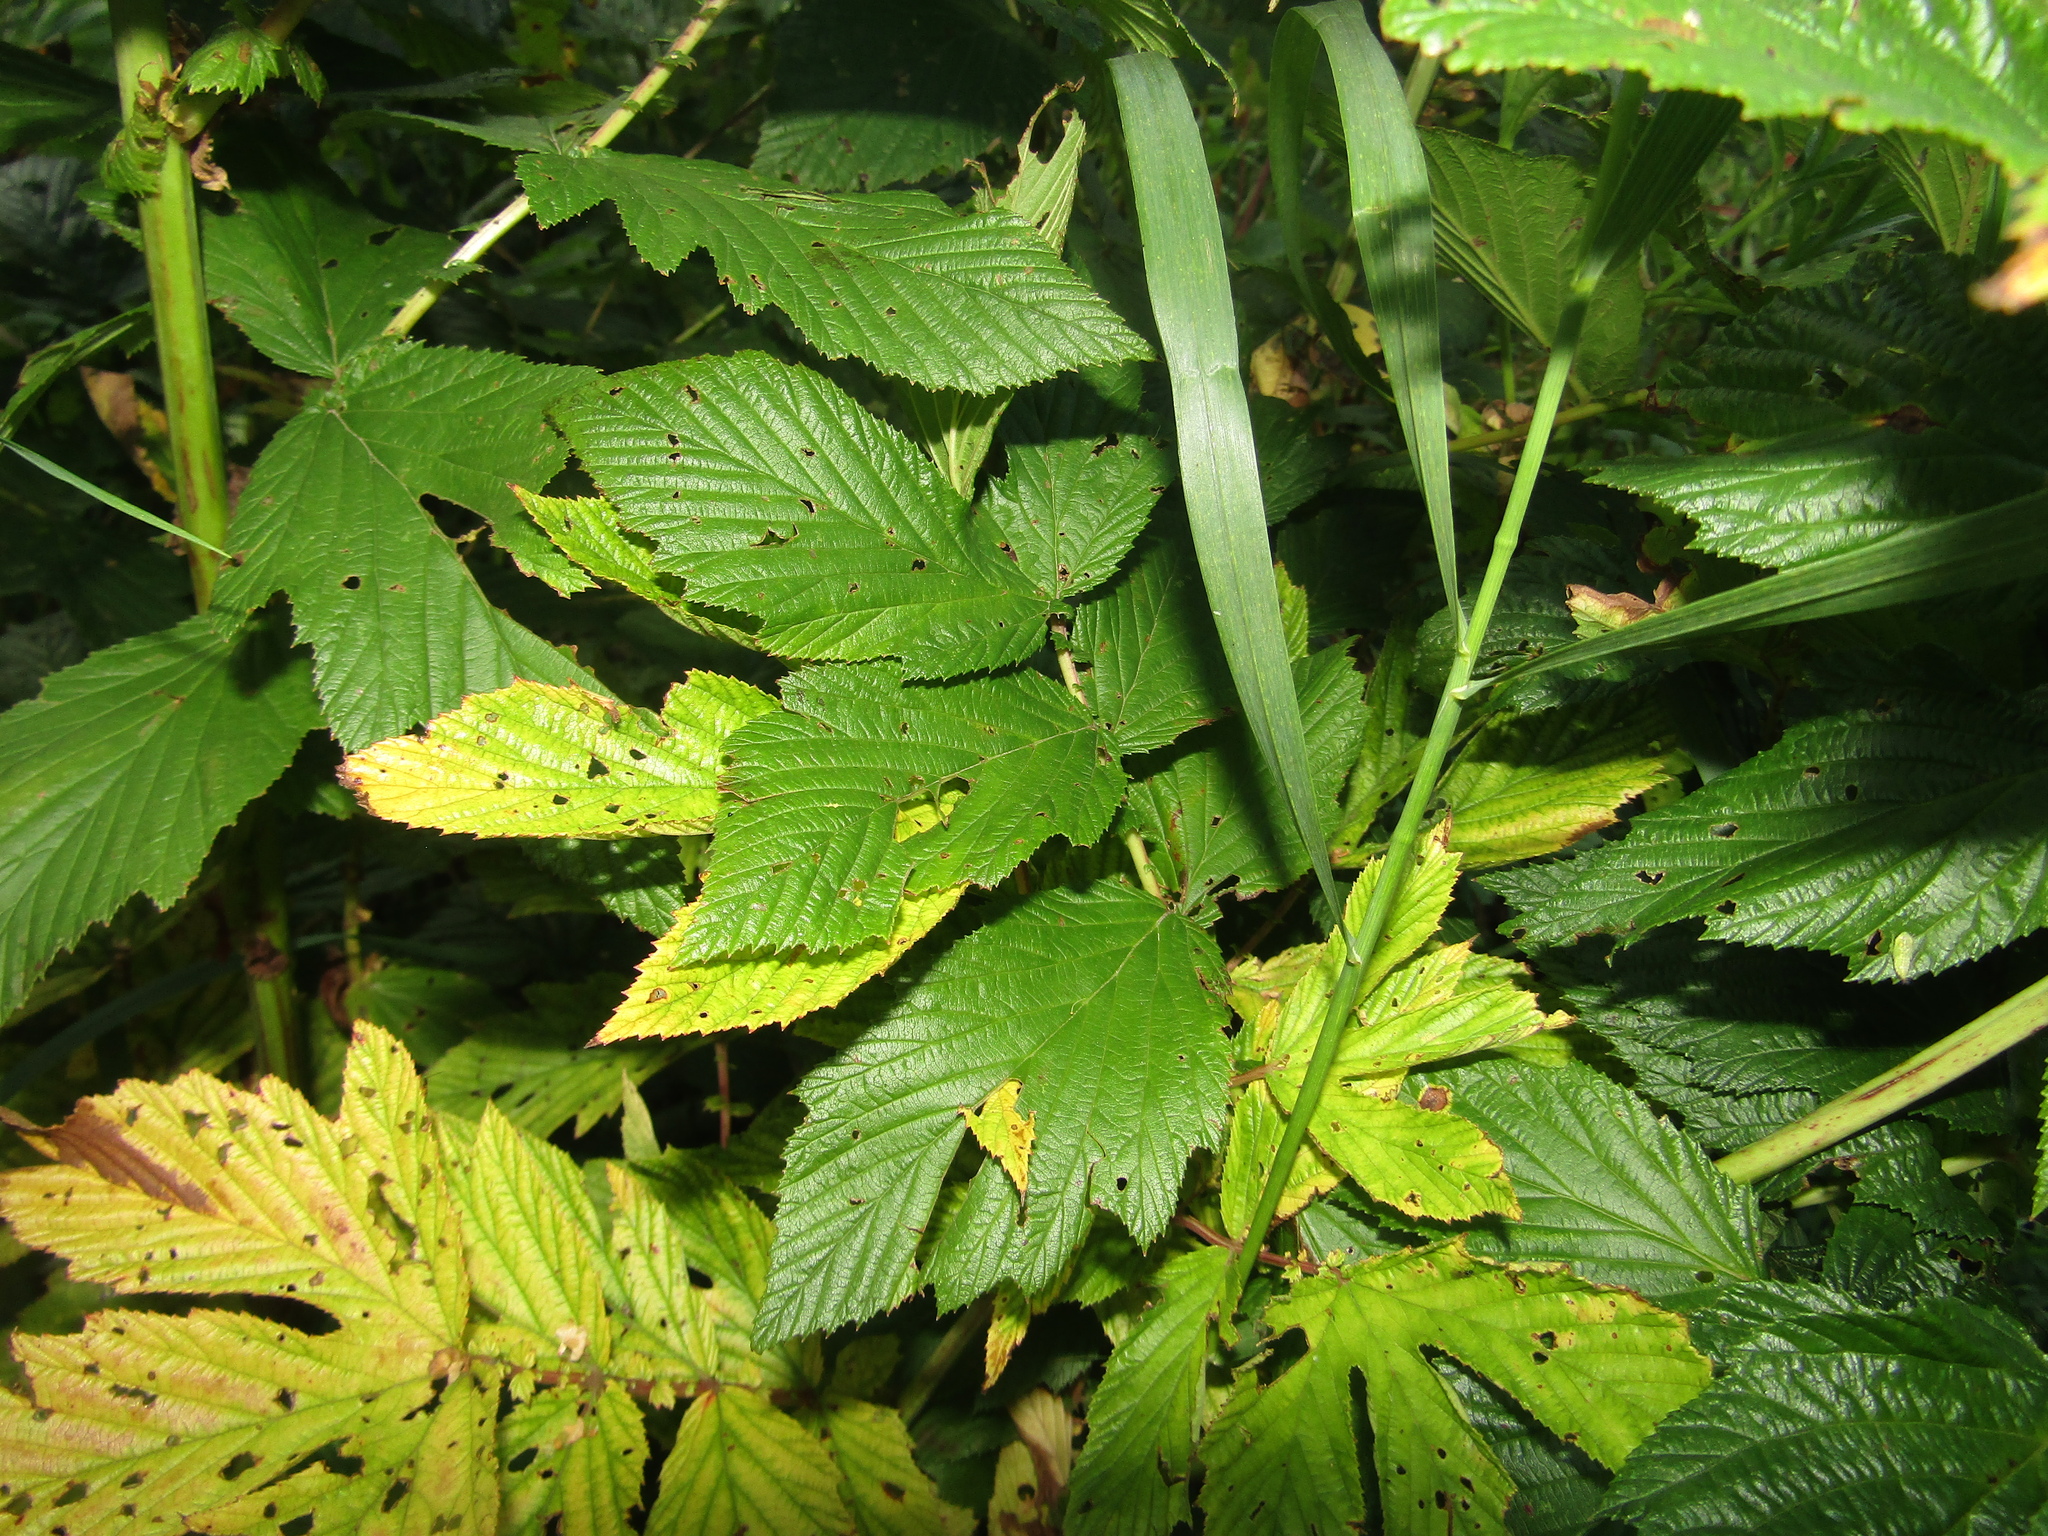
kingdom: Plantae
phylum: Tracheophyta
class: Magnoliopsida
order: Rosales
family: Rosaceae
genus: Filipendula
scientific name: Filipendula ulmaria
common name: Meadowsweet
